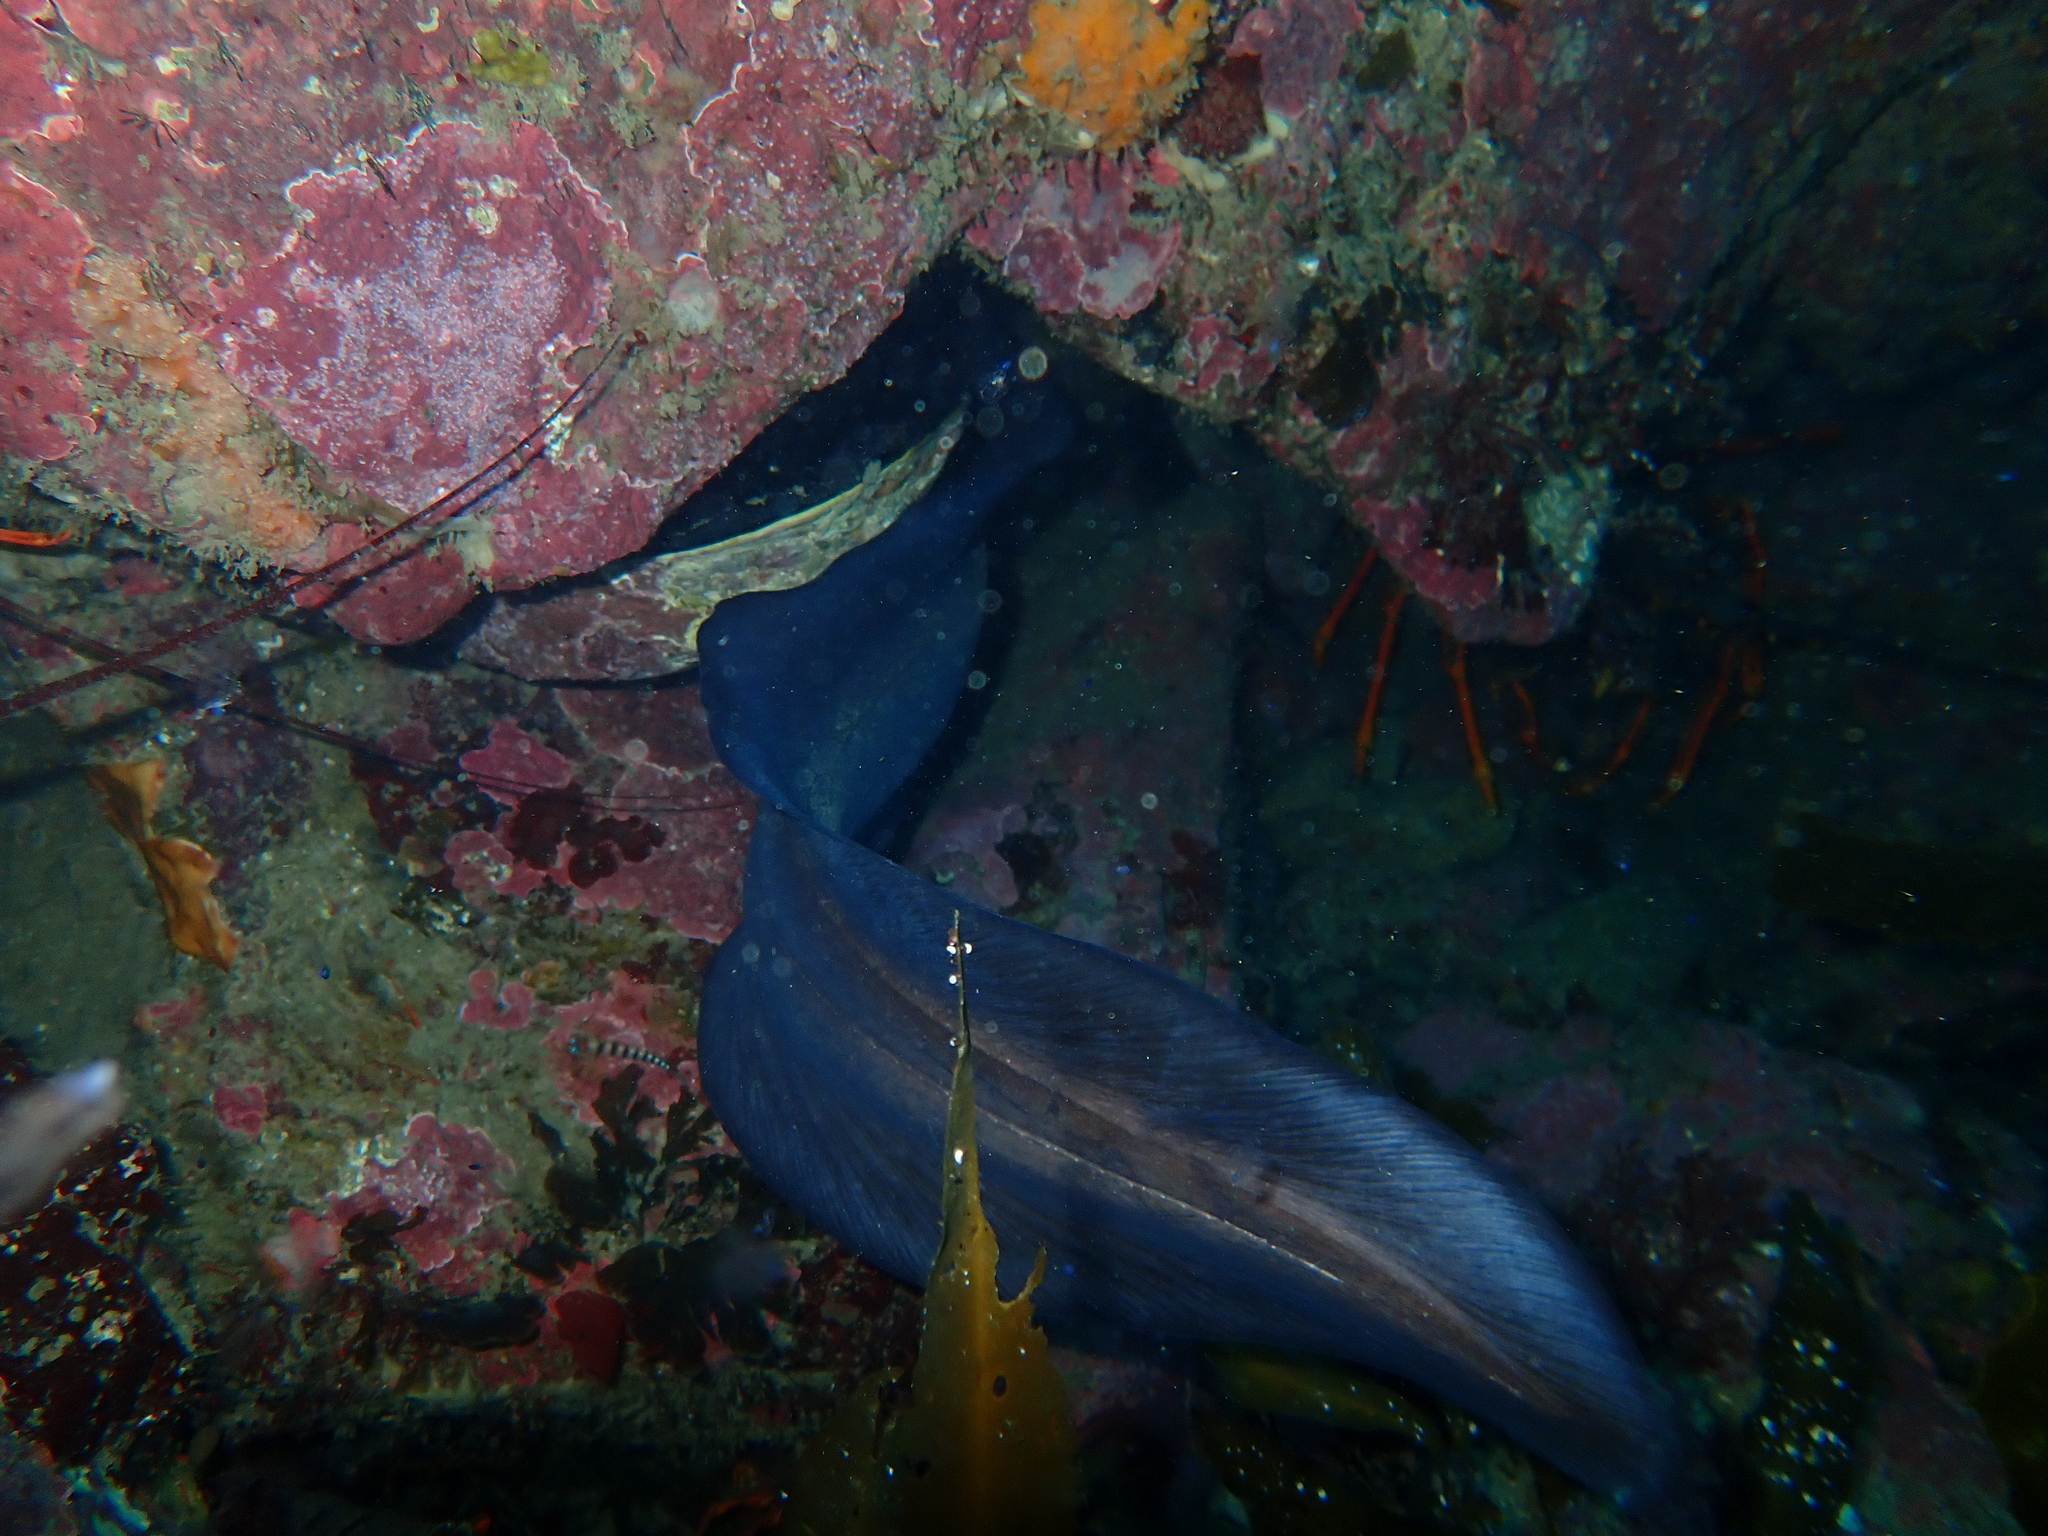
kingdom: Animalia
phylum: Chordata
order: Anguilliformes
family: Congridae
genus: Conger
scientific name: Conger verreauxi
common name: Conger eel
